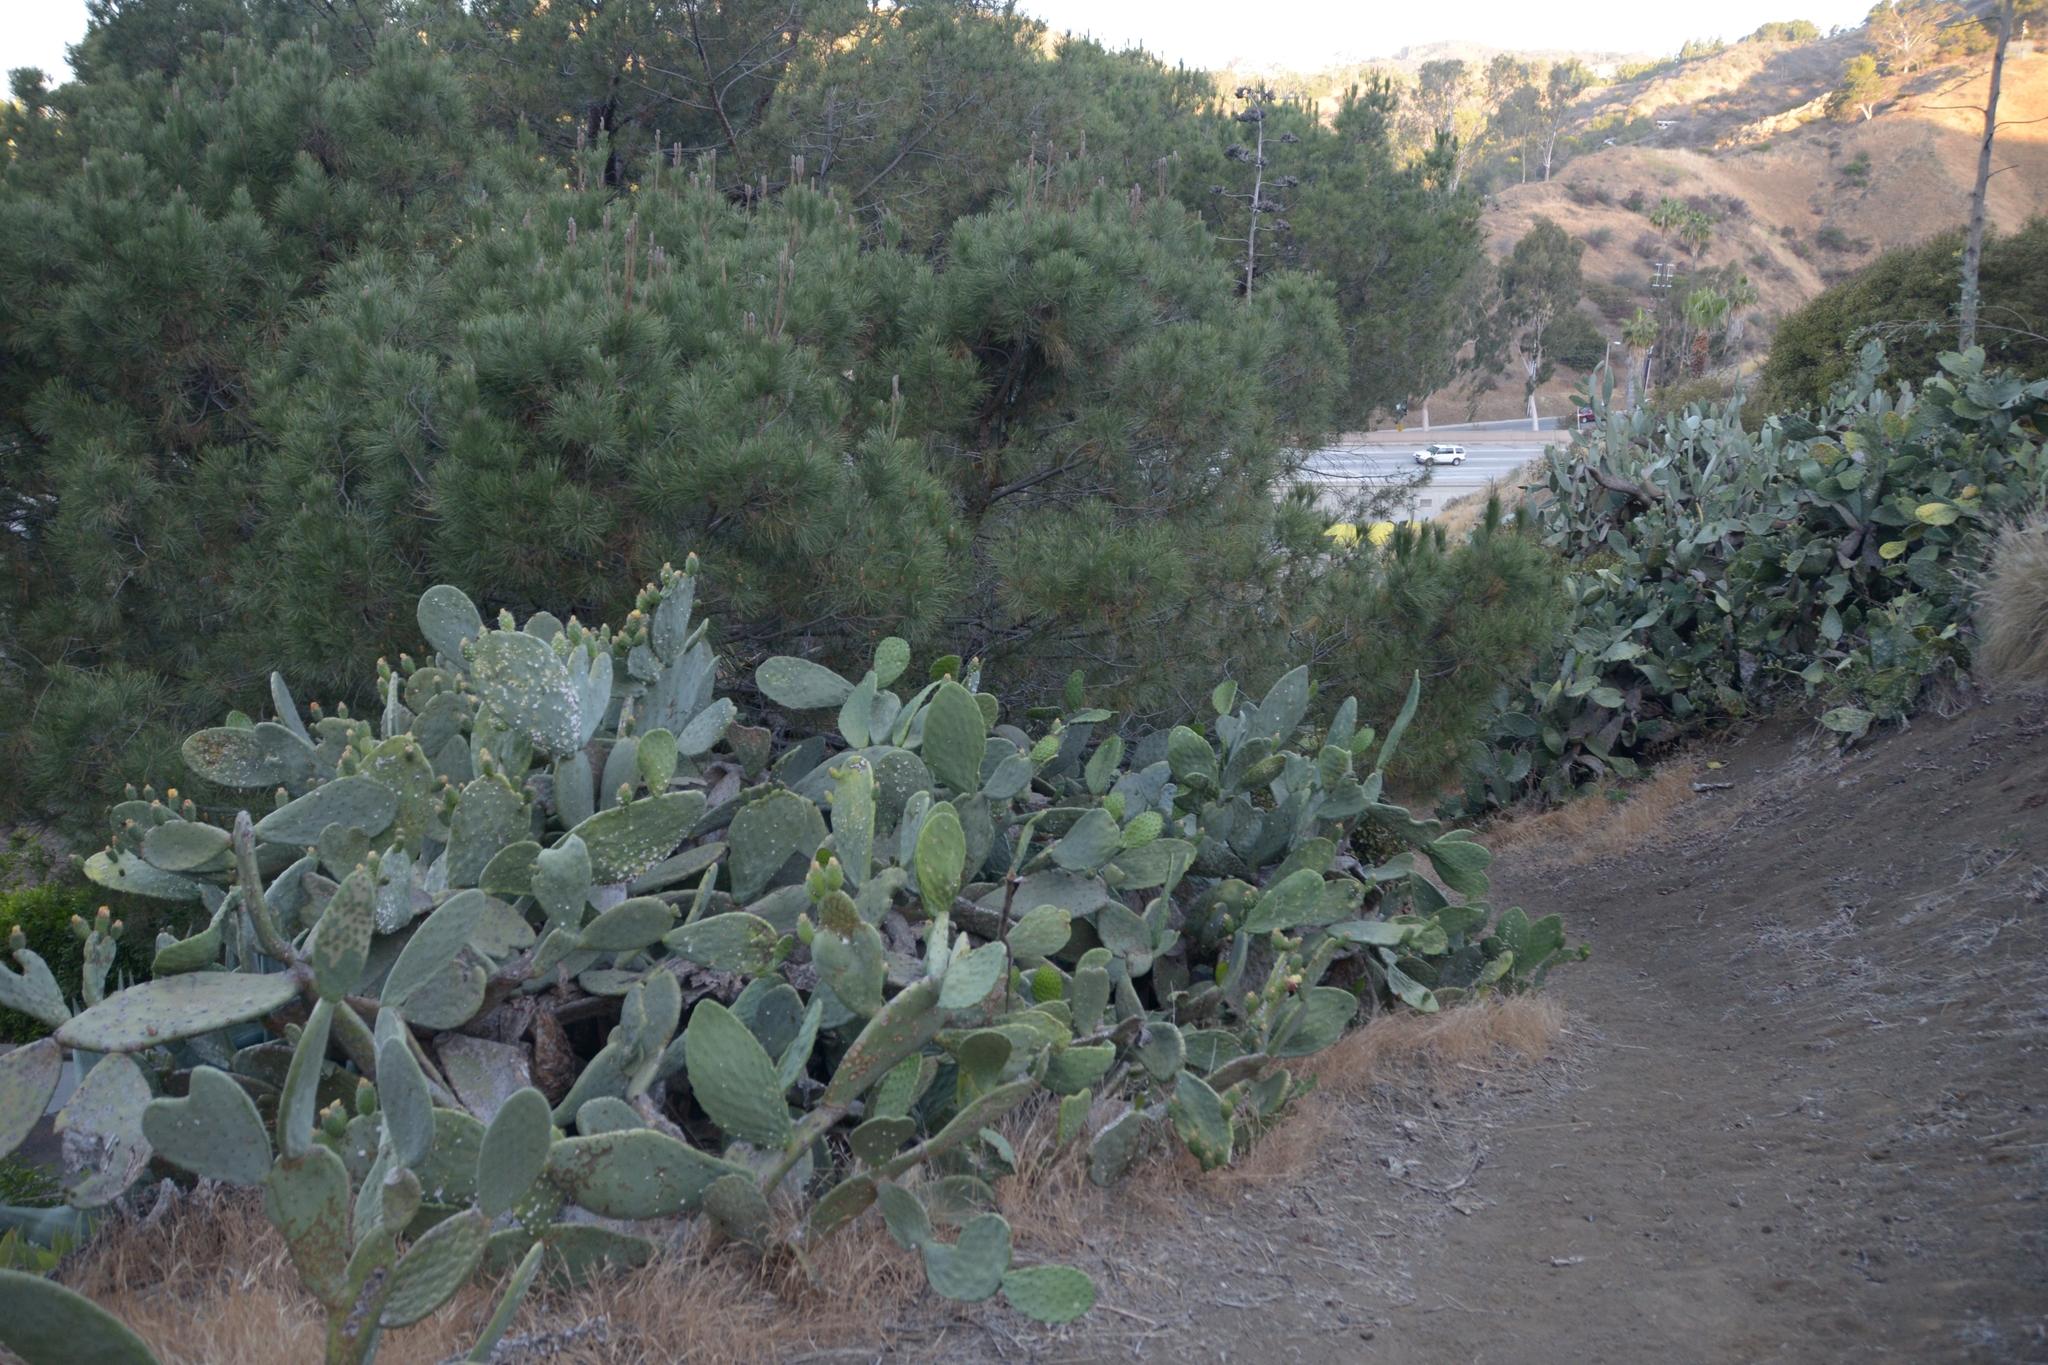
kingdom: Plantae
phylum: Tracheophyta
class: Magnoliopsida
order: Caryophyllales
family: Cactaceae
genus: Opuntia
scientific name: Opuntia ficus-indica
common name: Barbary fig
